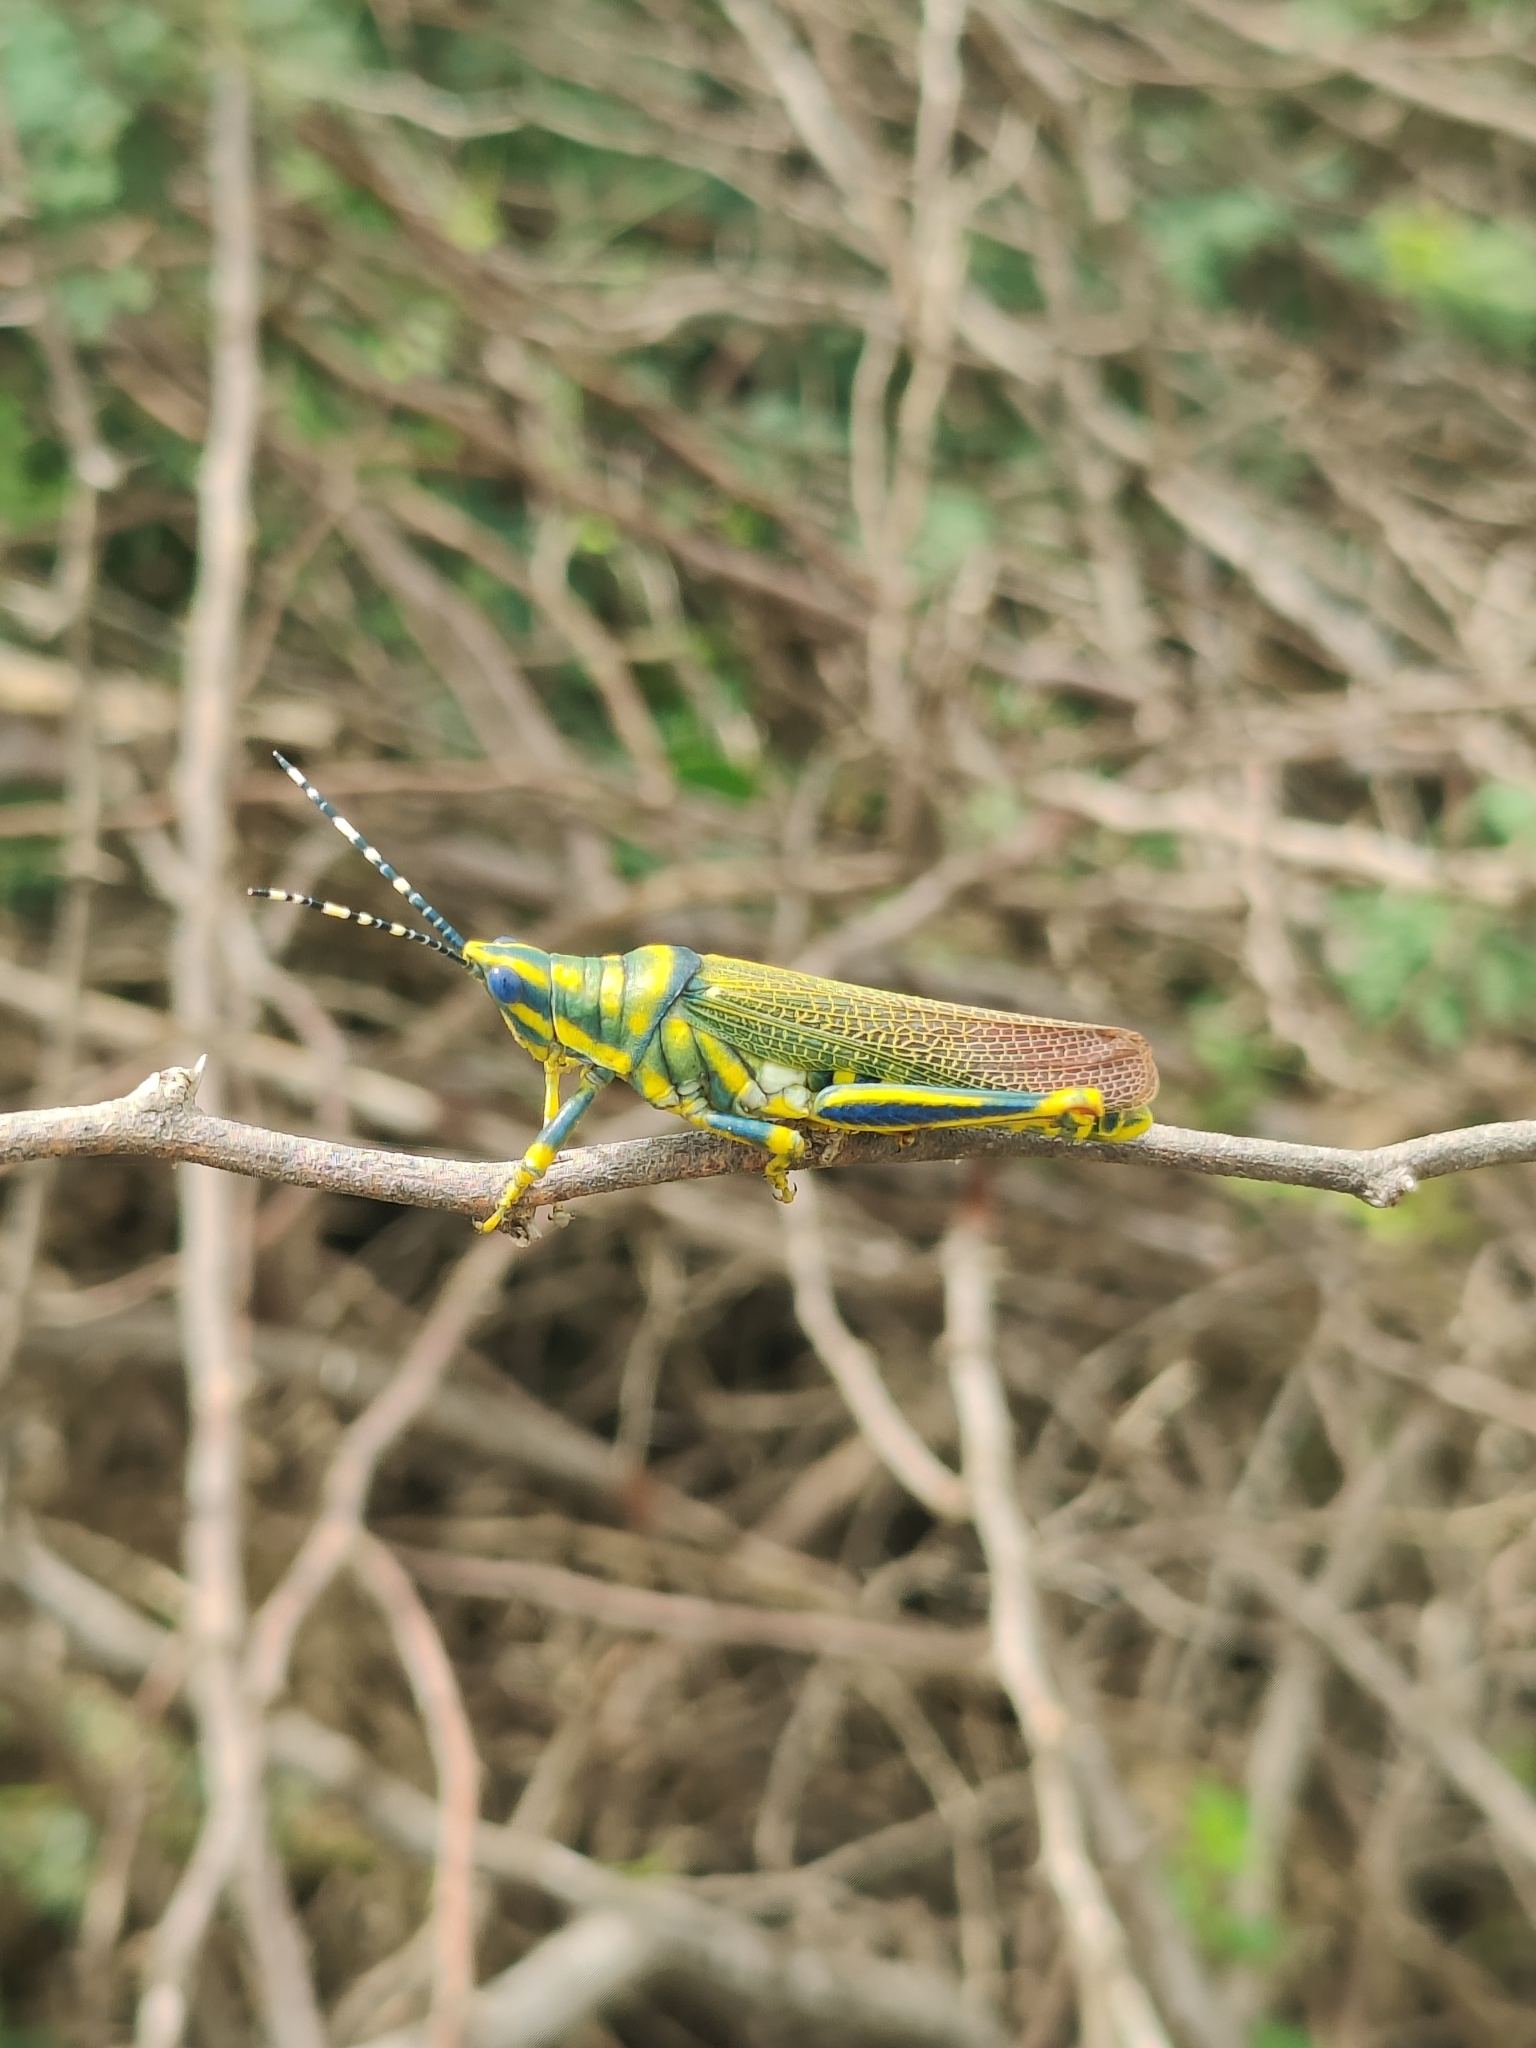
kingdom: Animalia
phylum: Arthropoda
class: Insecta
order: Orthoptera
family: Pyrgomorphidae
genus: Poekilocerus
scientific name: Poekilocerus pictus
